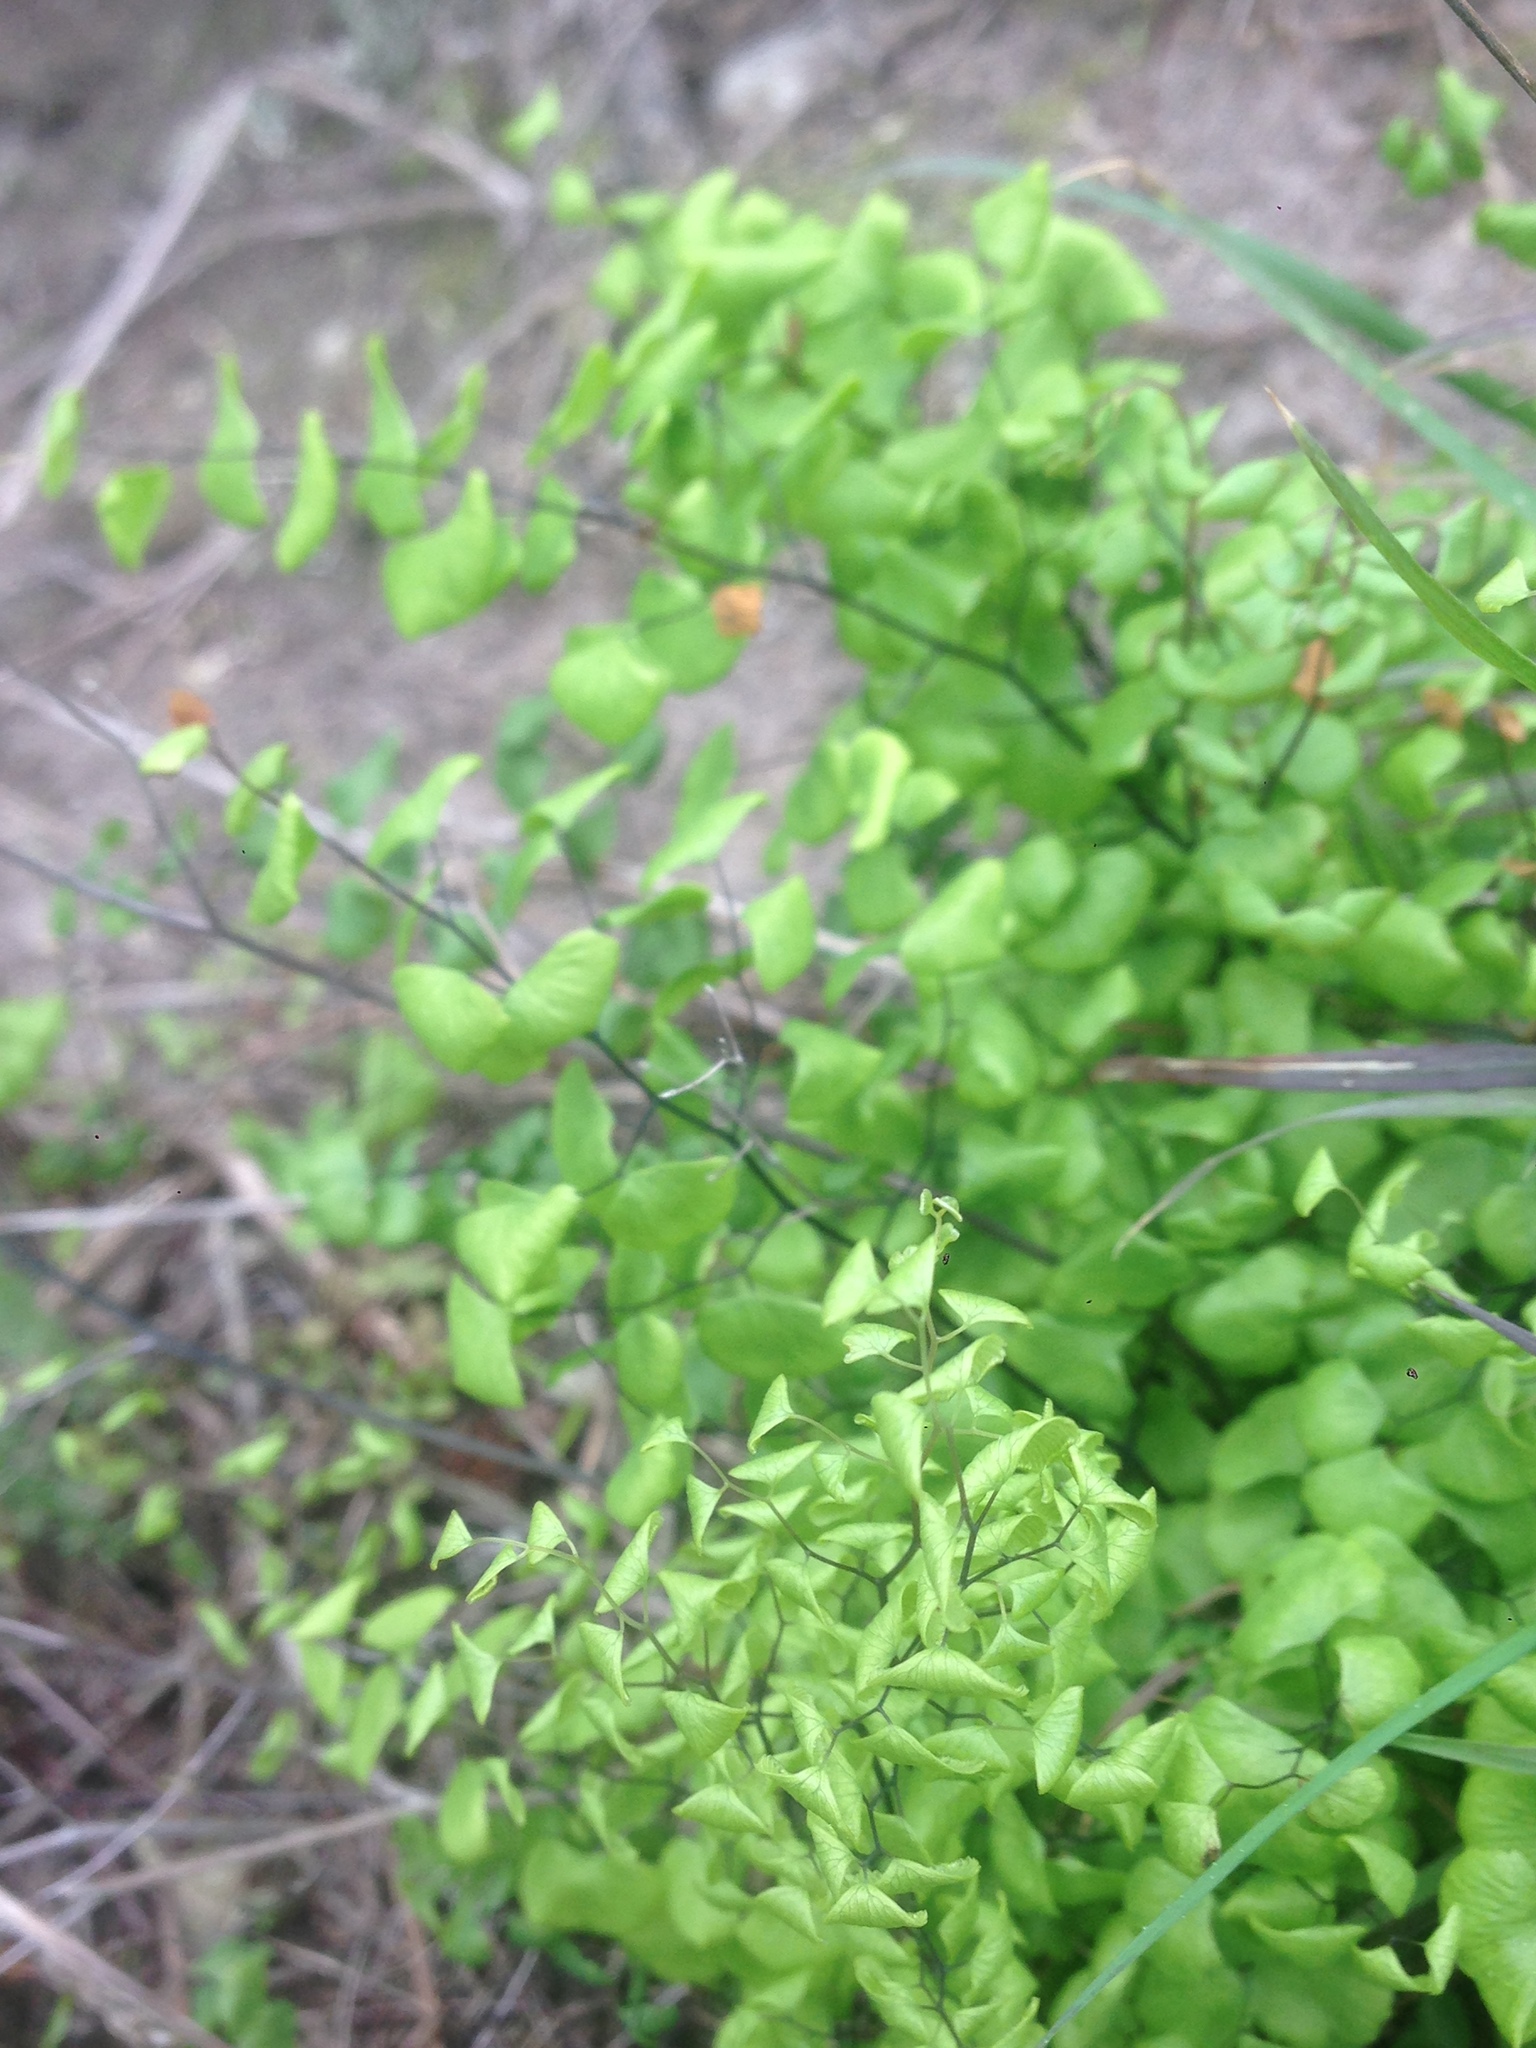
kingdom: Plantae
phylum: Tracheophyta
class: Polypodiopsida
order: Polypodiales
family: Pteridaceae
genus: Adiantum
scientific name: Adiantum jordanii
